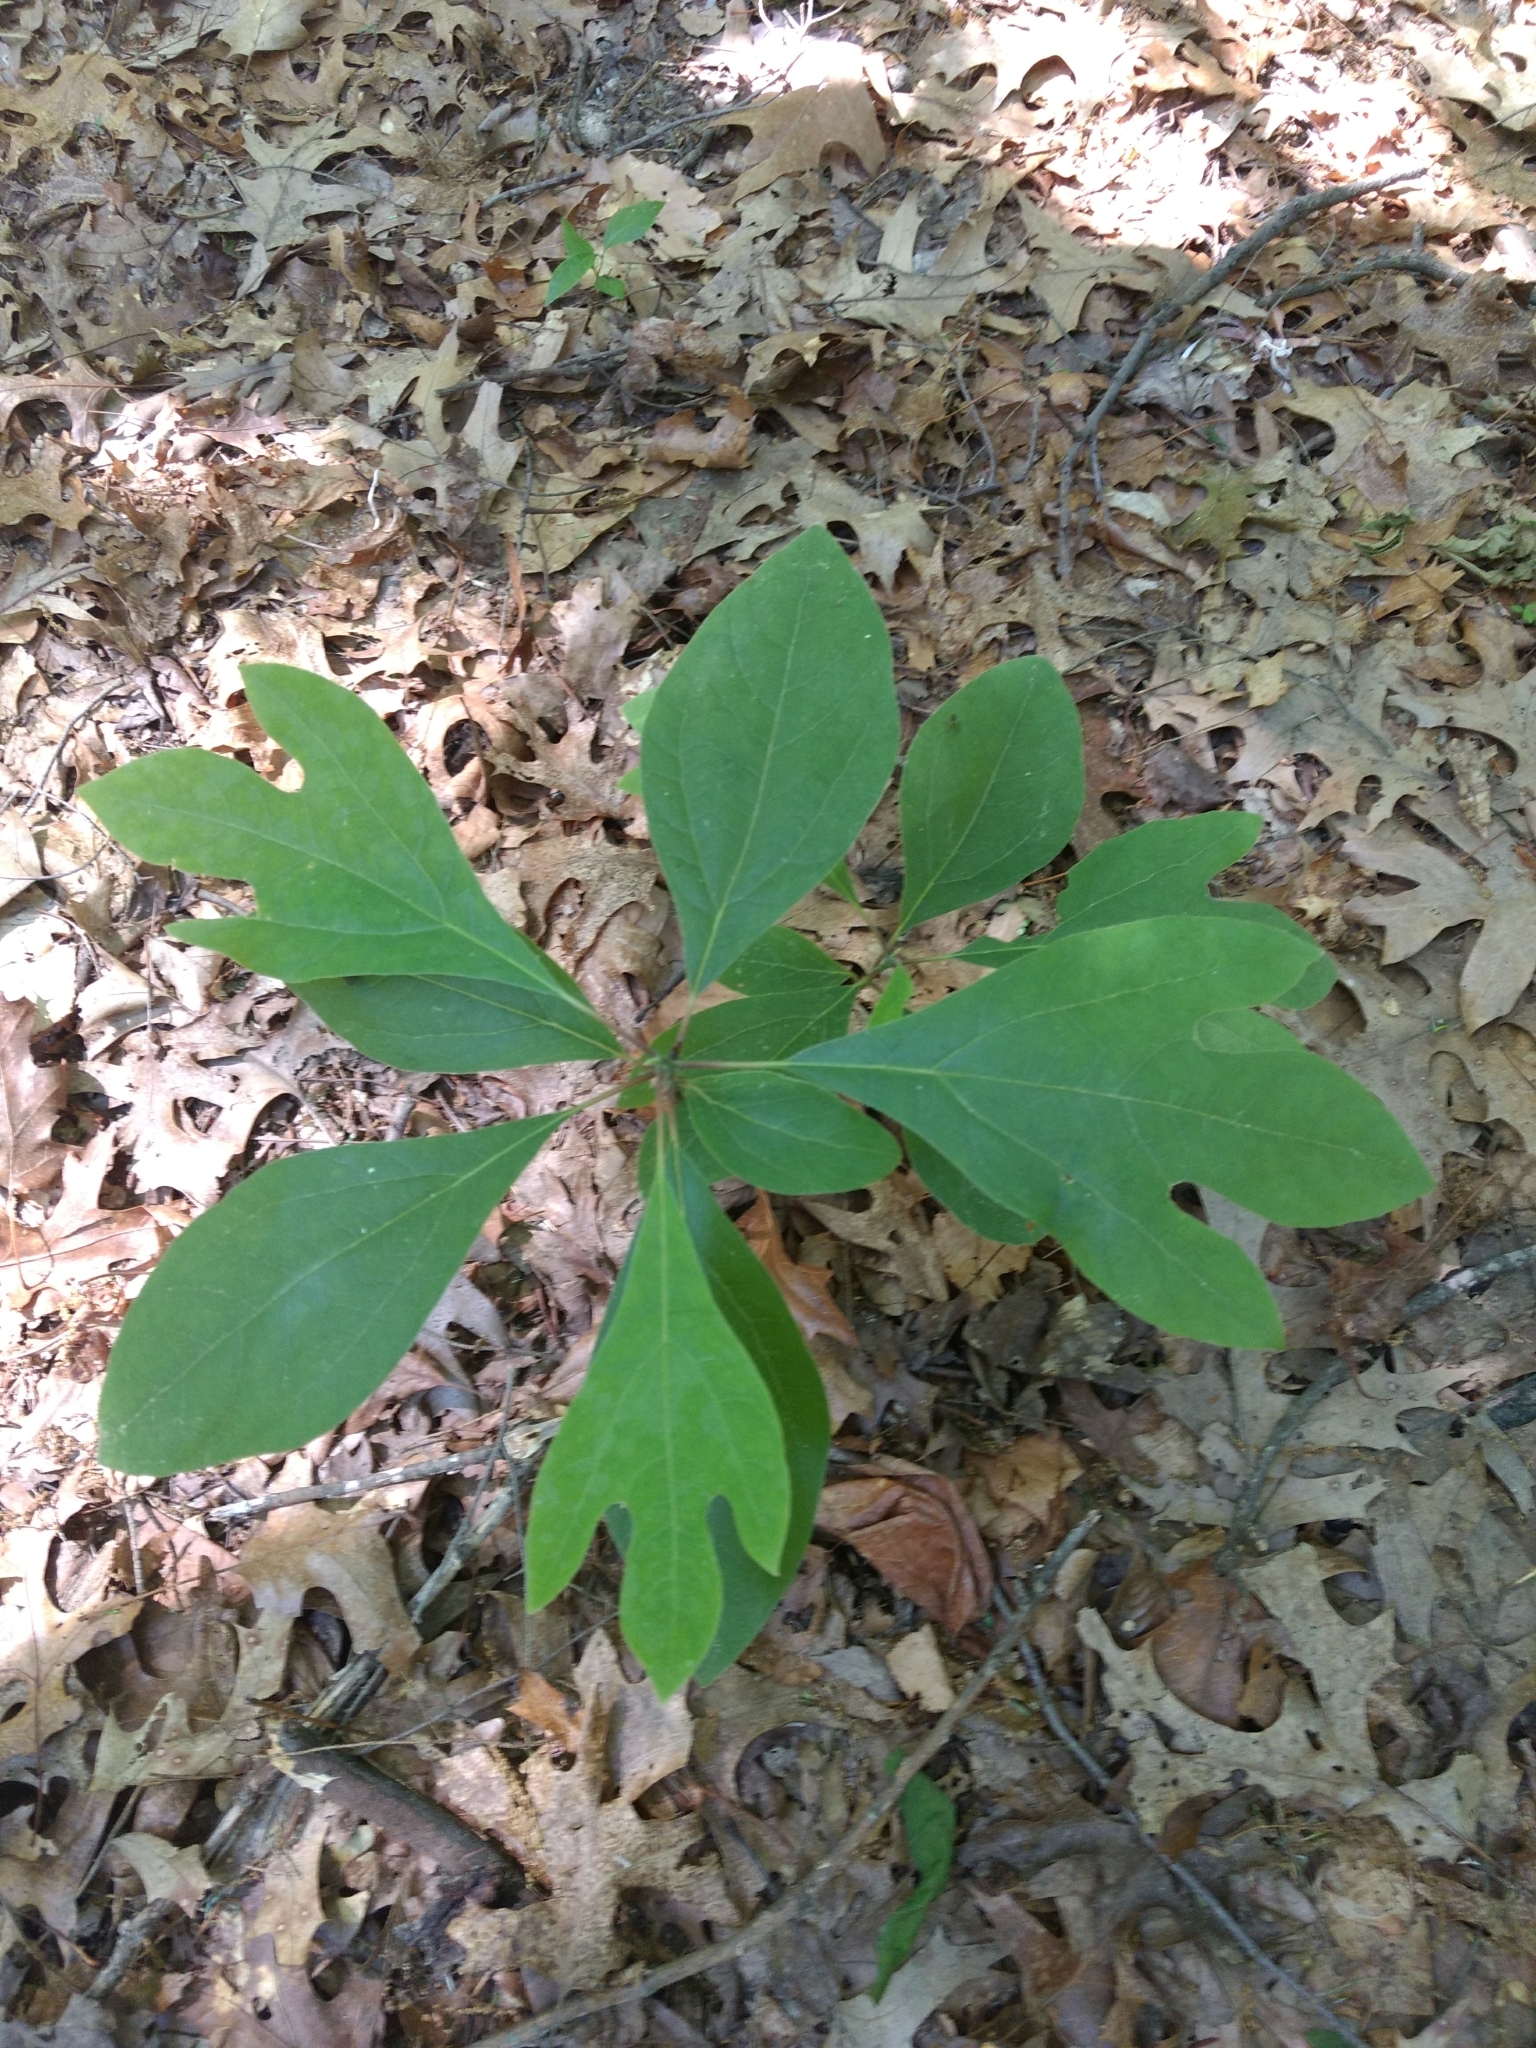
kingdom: Plantae
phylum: Tracheophyta
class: Magnoliopsida
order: Laurales
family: Lauraceae
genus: Sassafras
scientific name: Sassafras albidum
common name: Sassafras
